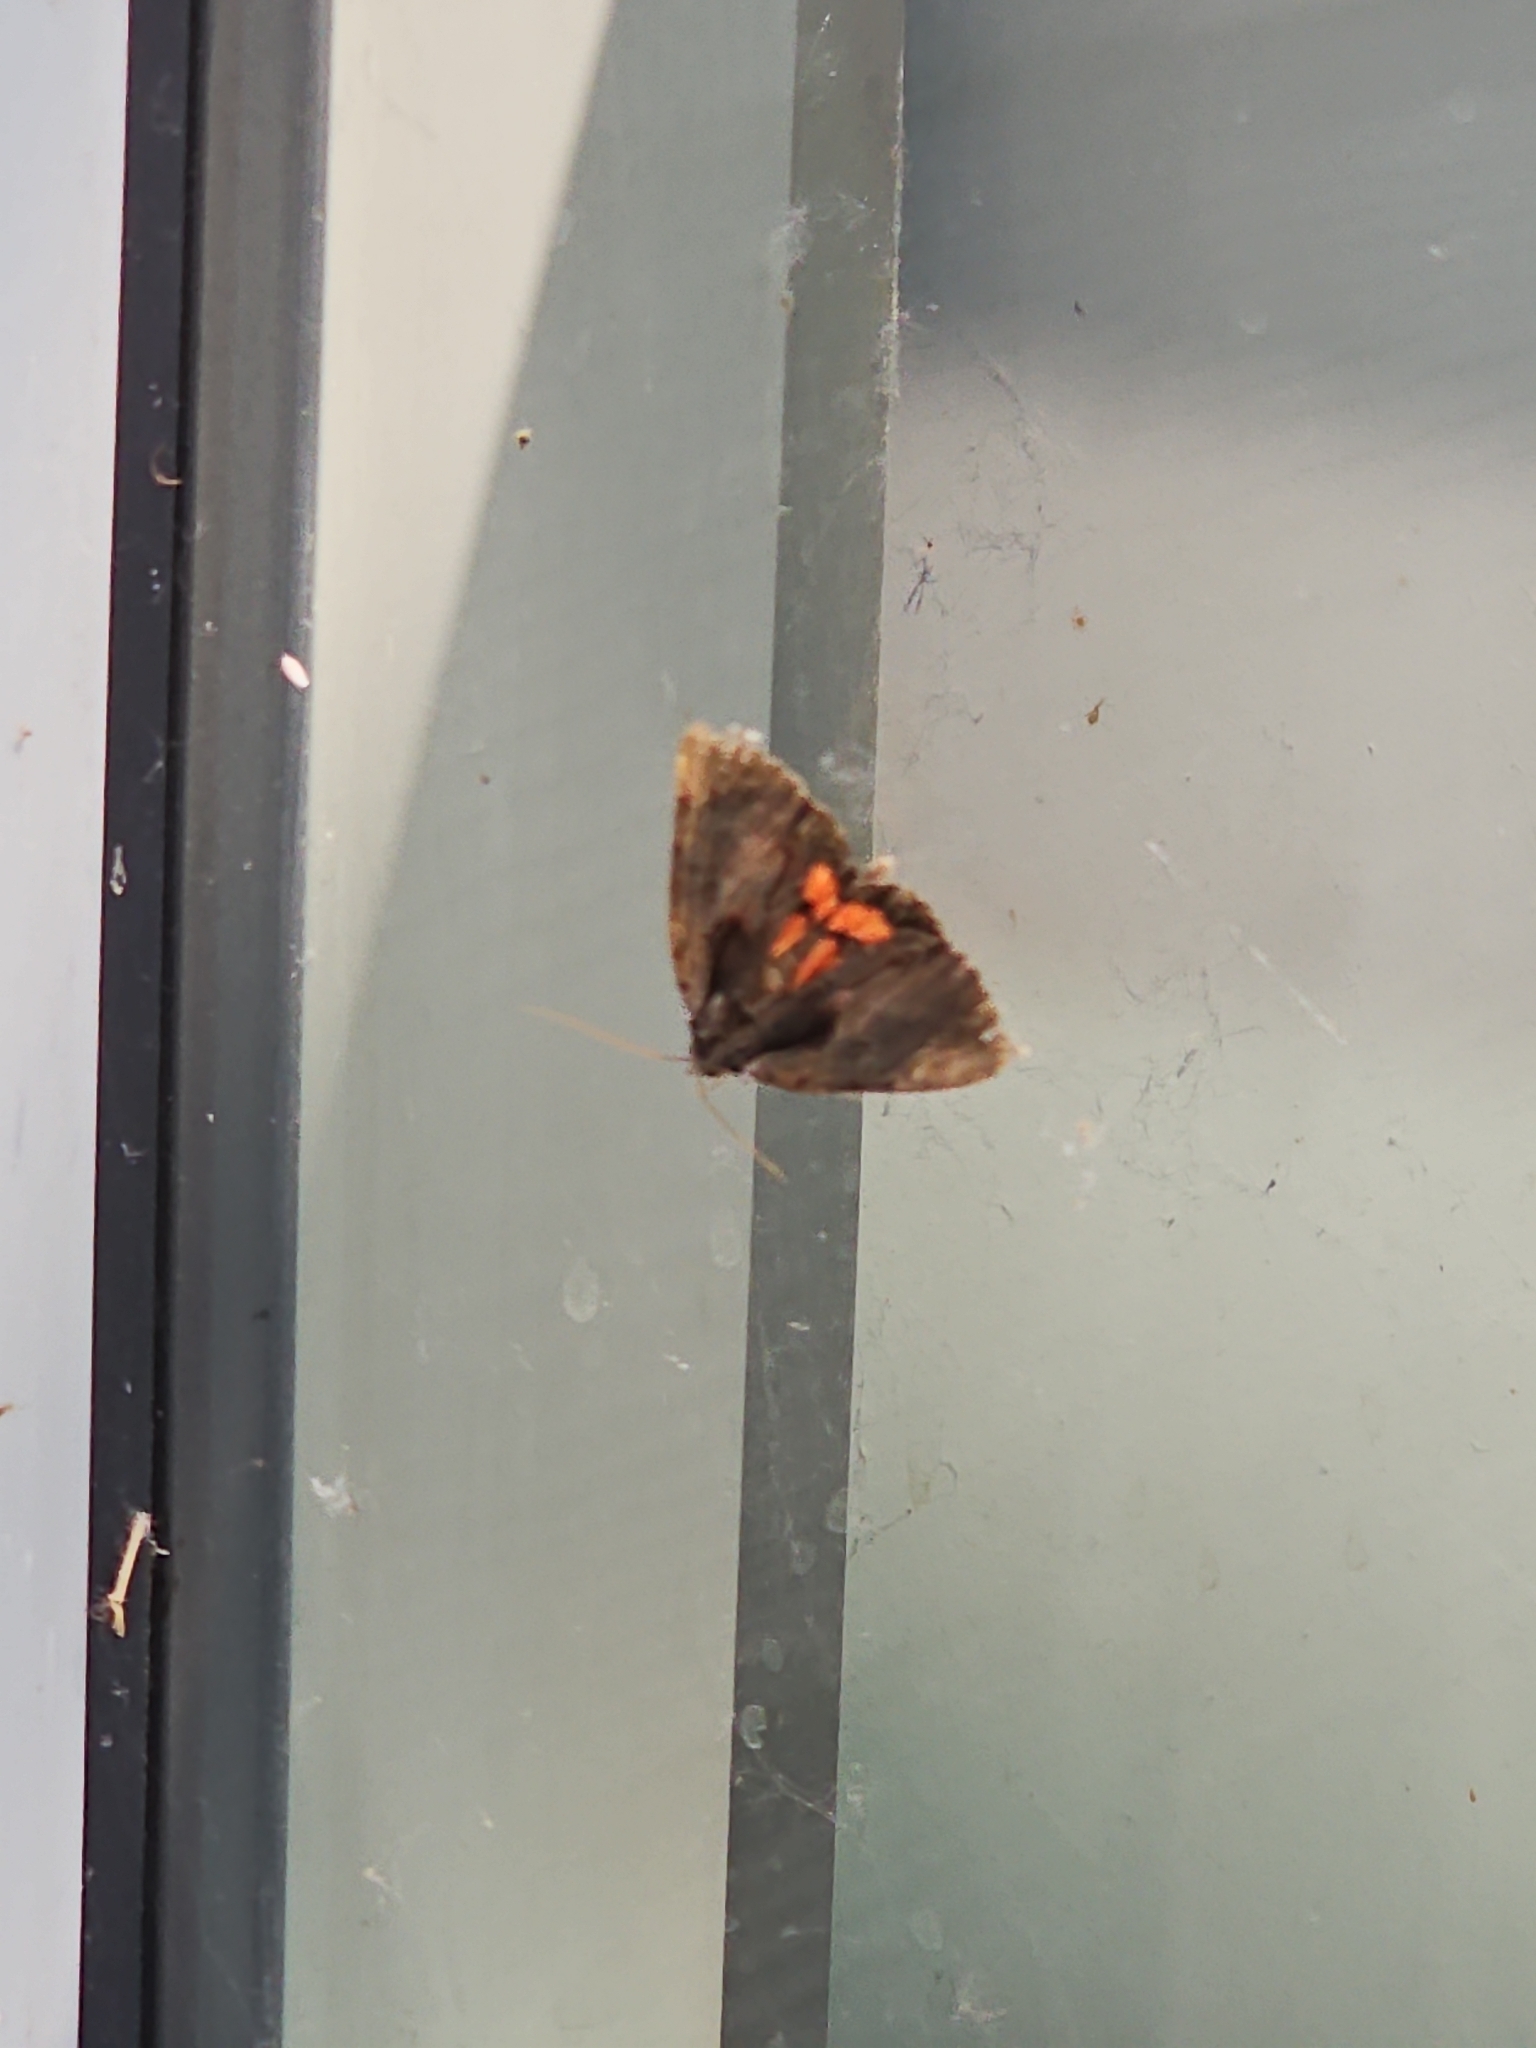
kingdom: Animalia
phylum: Arthropoda
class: Insecta
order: Lepidoptera
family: Erebidae
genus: Catocala
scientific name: Catocala ultronia
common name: Ultronia underwing
